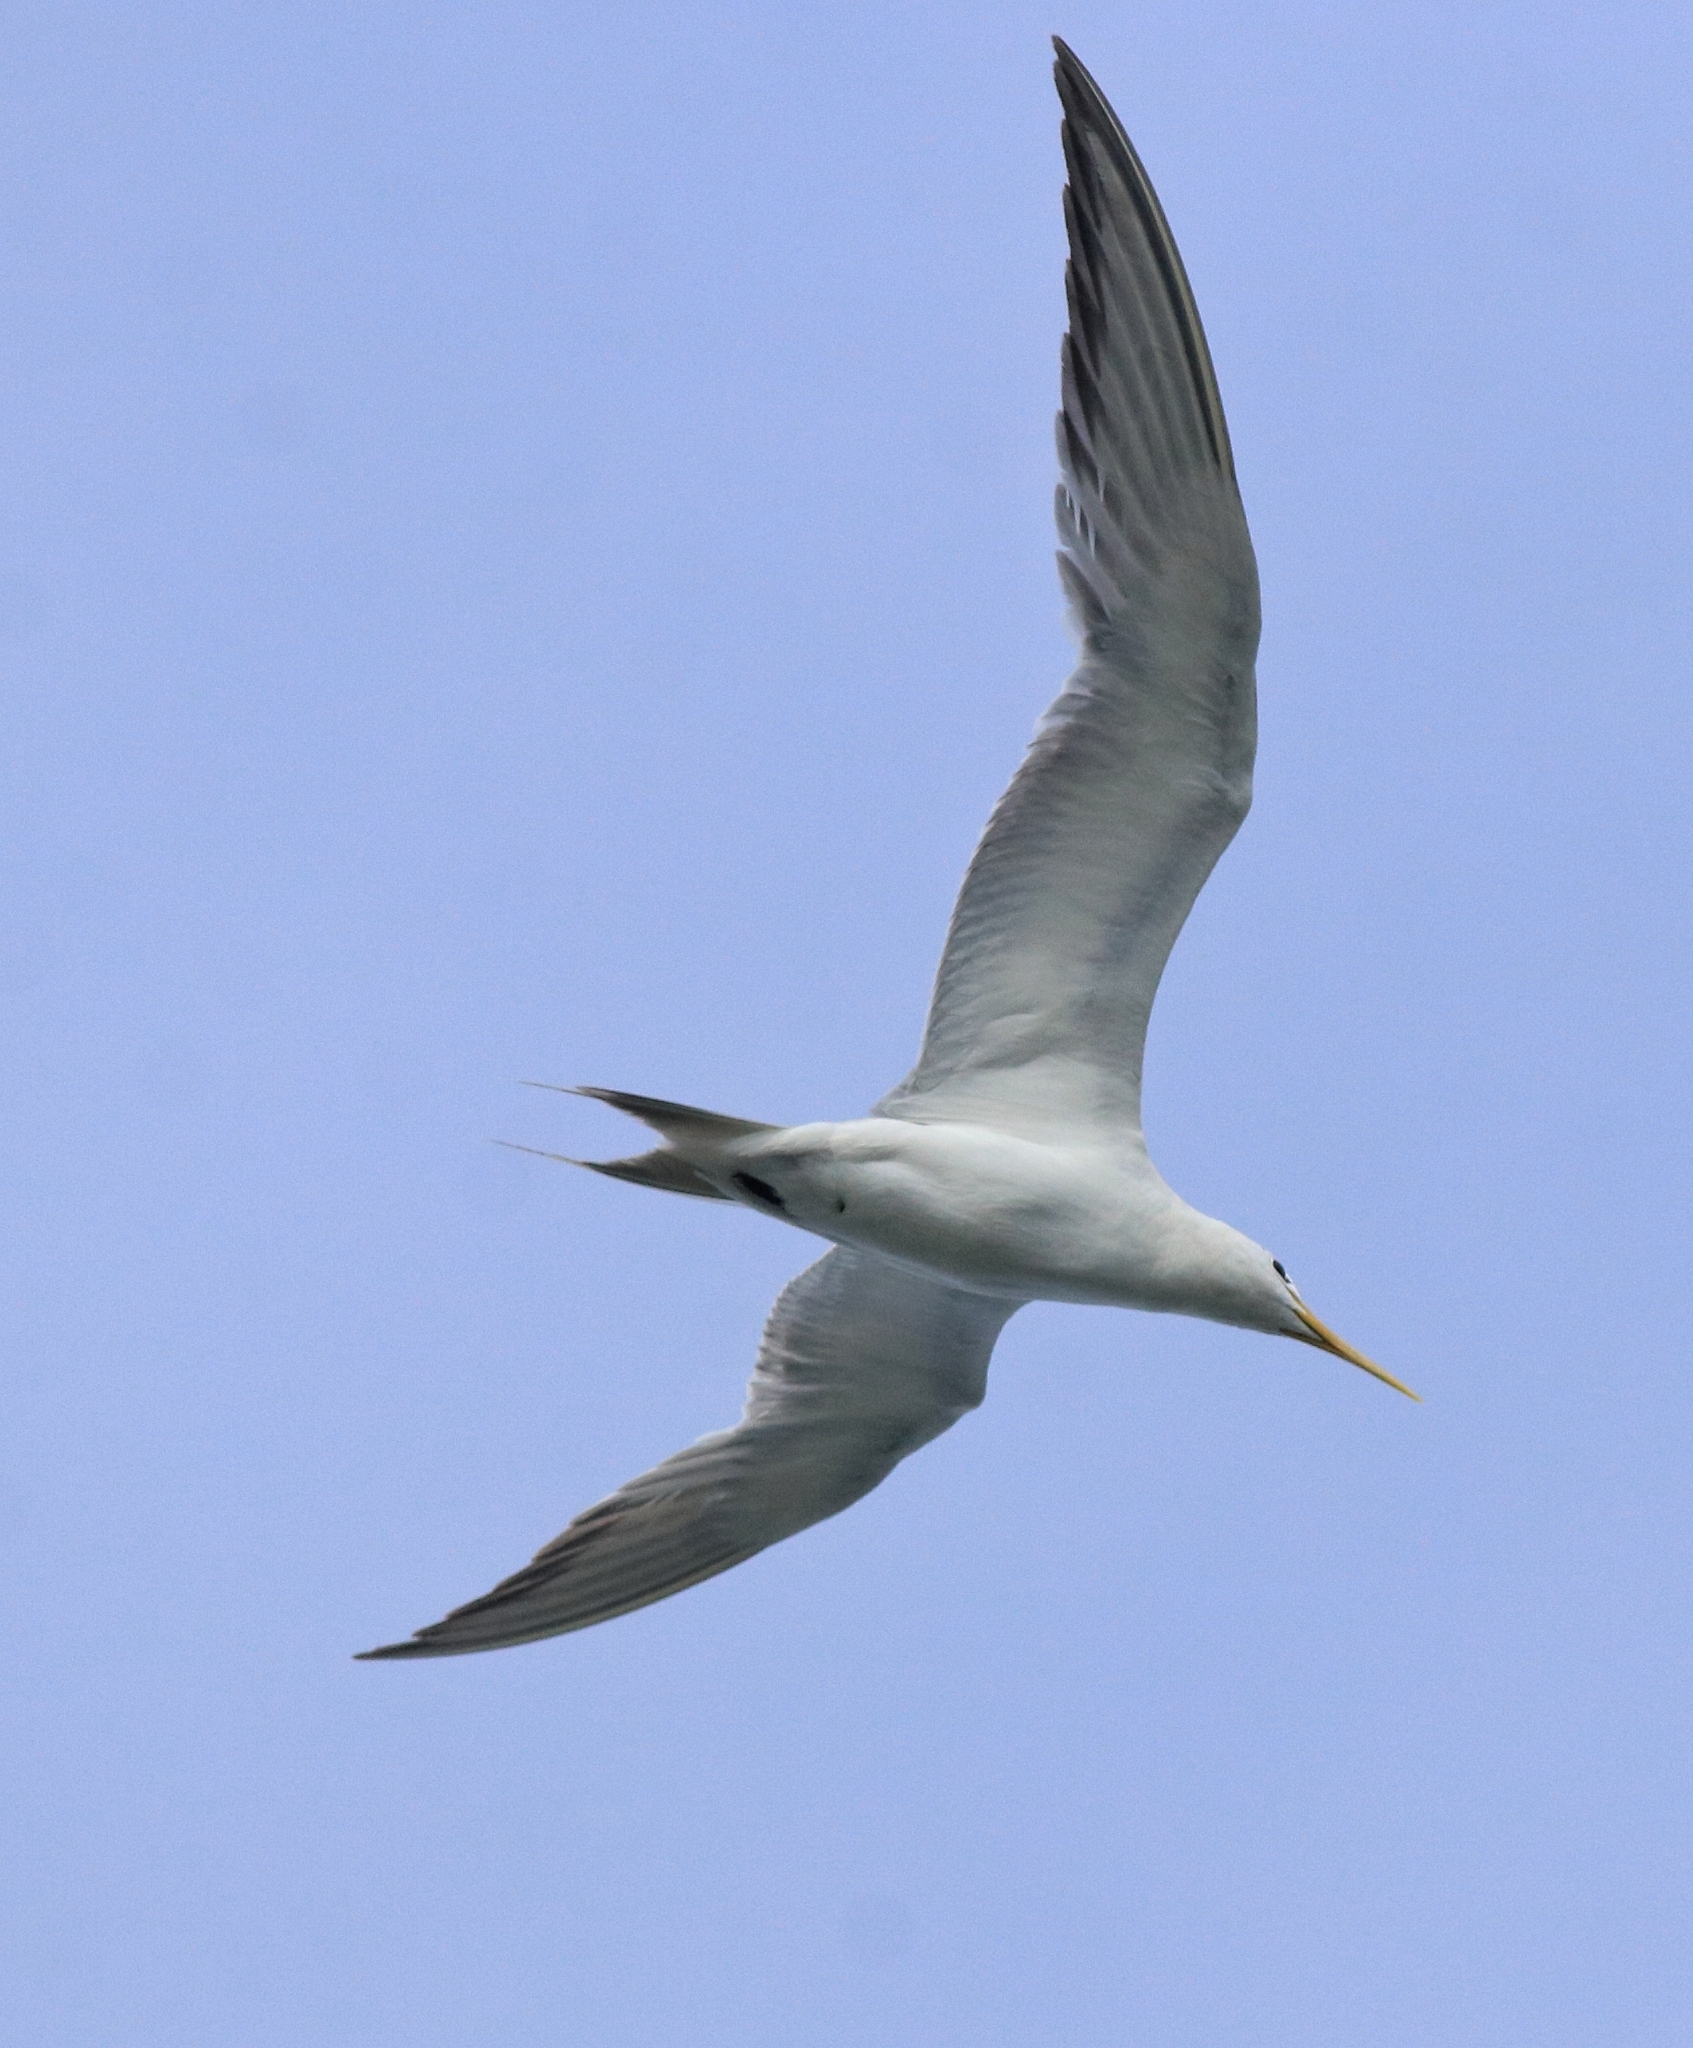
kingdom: Animalia
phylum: Chordata
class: Aves
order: Charadriiformes
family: Laridae
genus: Thalasseus
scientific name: Thalasseus bergii
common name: Greater crested tern
